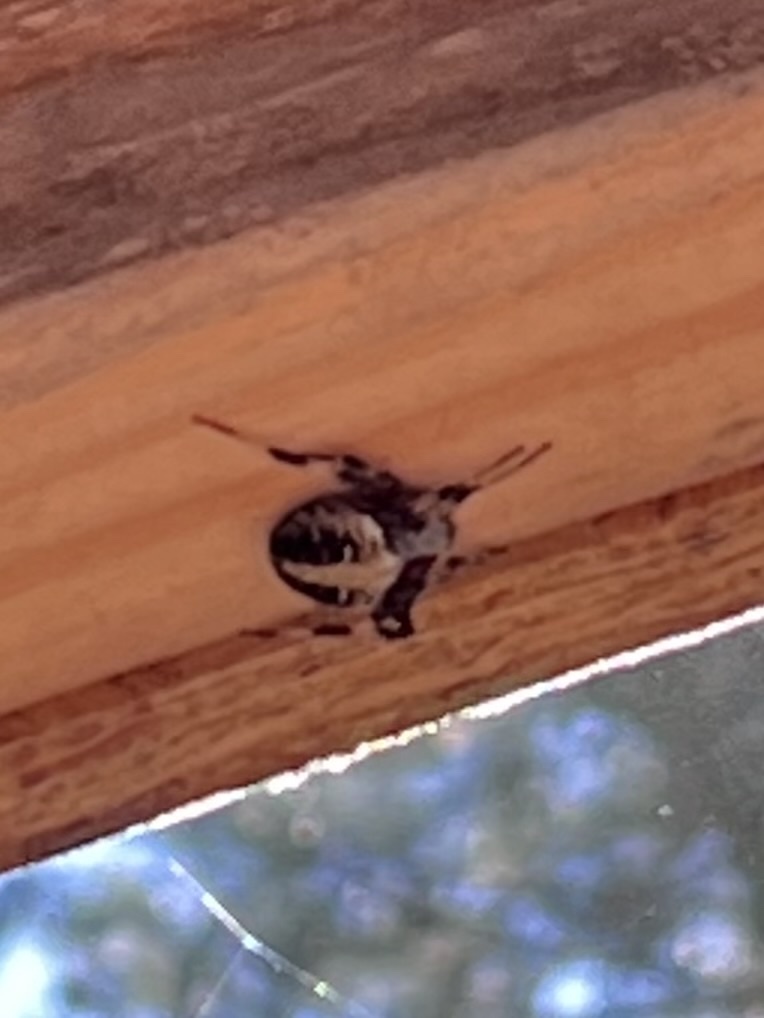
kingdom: Animalia
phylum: Arthropoda
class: Arachnida
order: Araneae
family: Araneidae
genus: Neoscona
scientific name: Neoscona domiciliorum
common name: Red-femured spotted orbweaver
